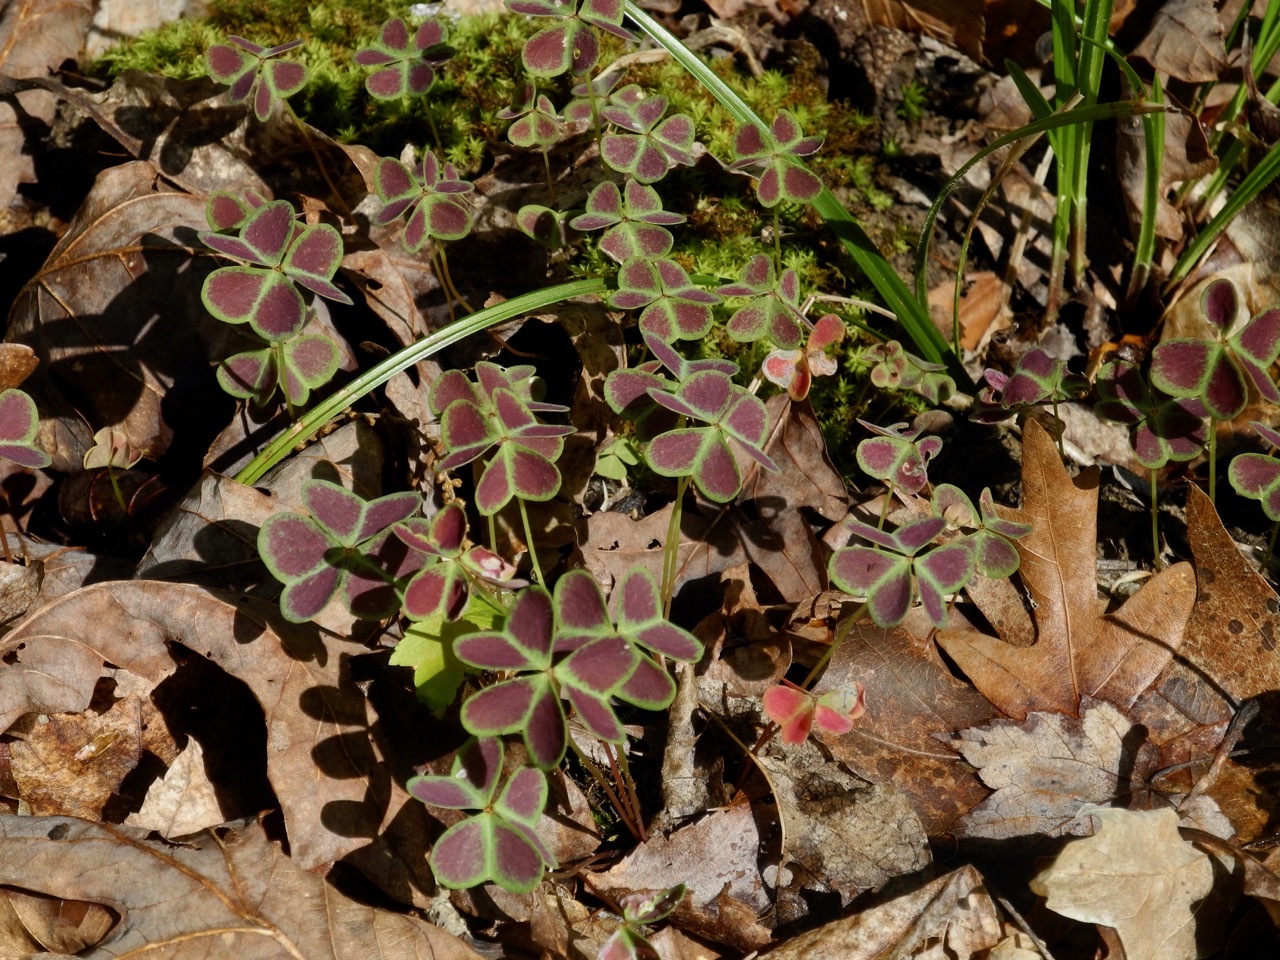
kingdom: Plantae
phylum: Tracheophyta
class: Magnoliopsida
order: Oxalidales
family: Oxalidaceae
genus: Oxalis
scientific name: Oxalis violacea
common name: Violet wood-sorrel
